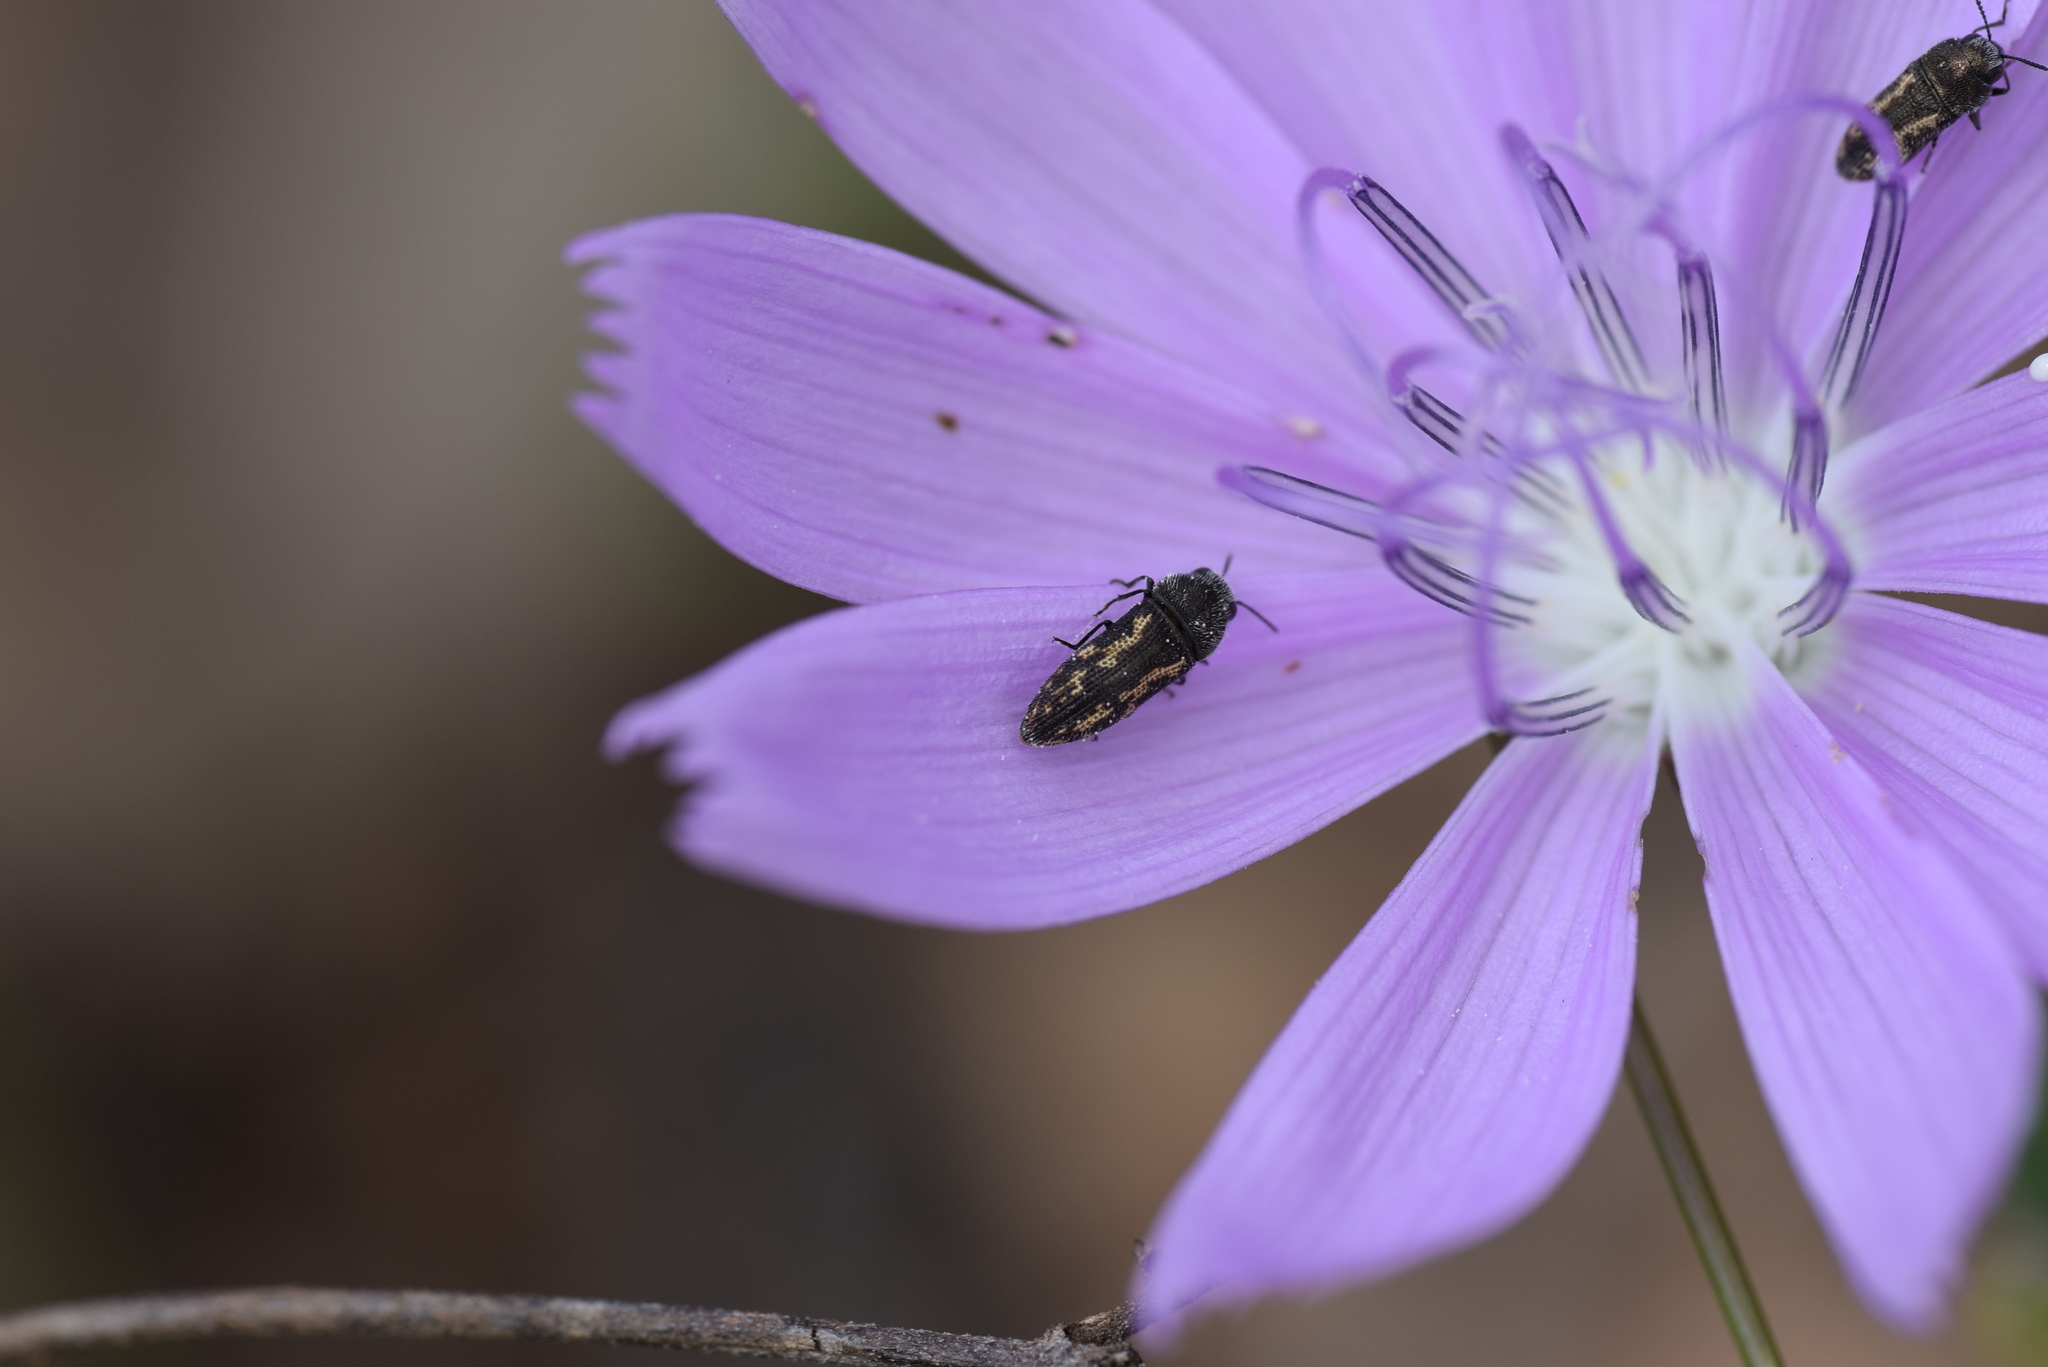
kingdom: Animalia
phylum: Arthropoda
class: Insecta
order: Coleoptera
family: Buprestidae
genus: Acmaeodera
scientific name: Acmaeodera neglecta
